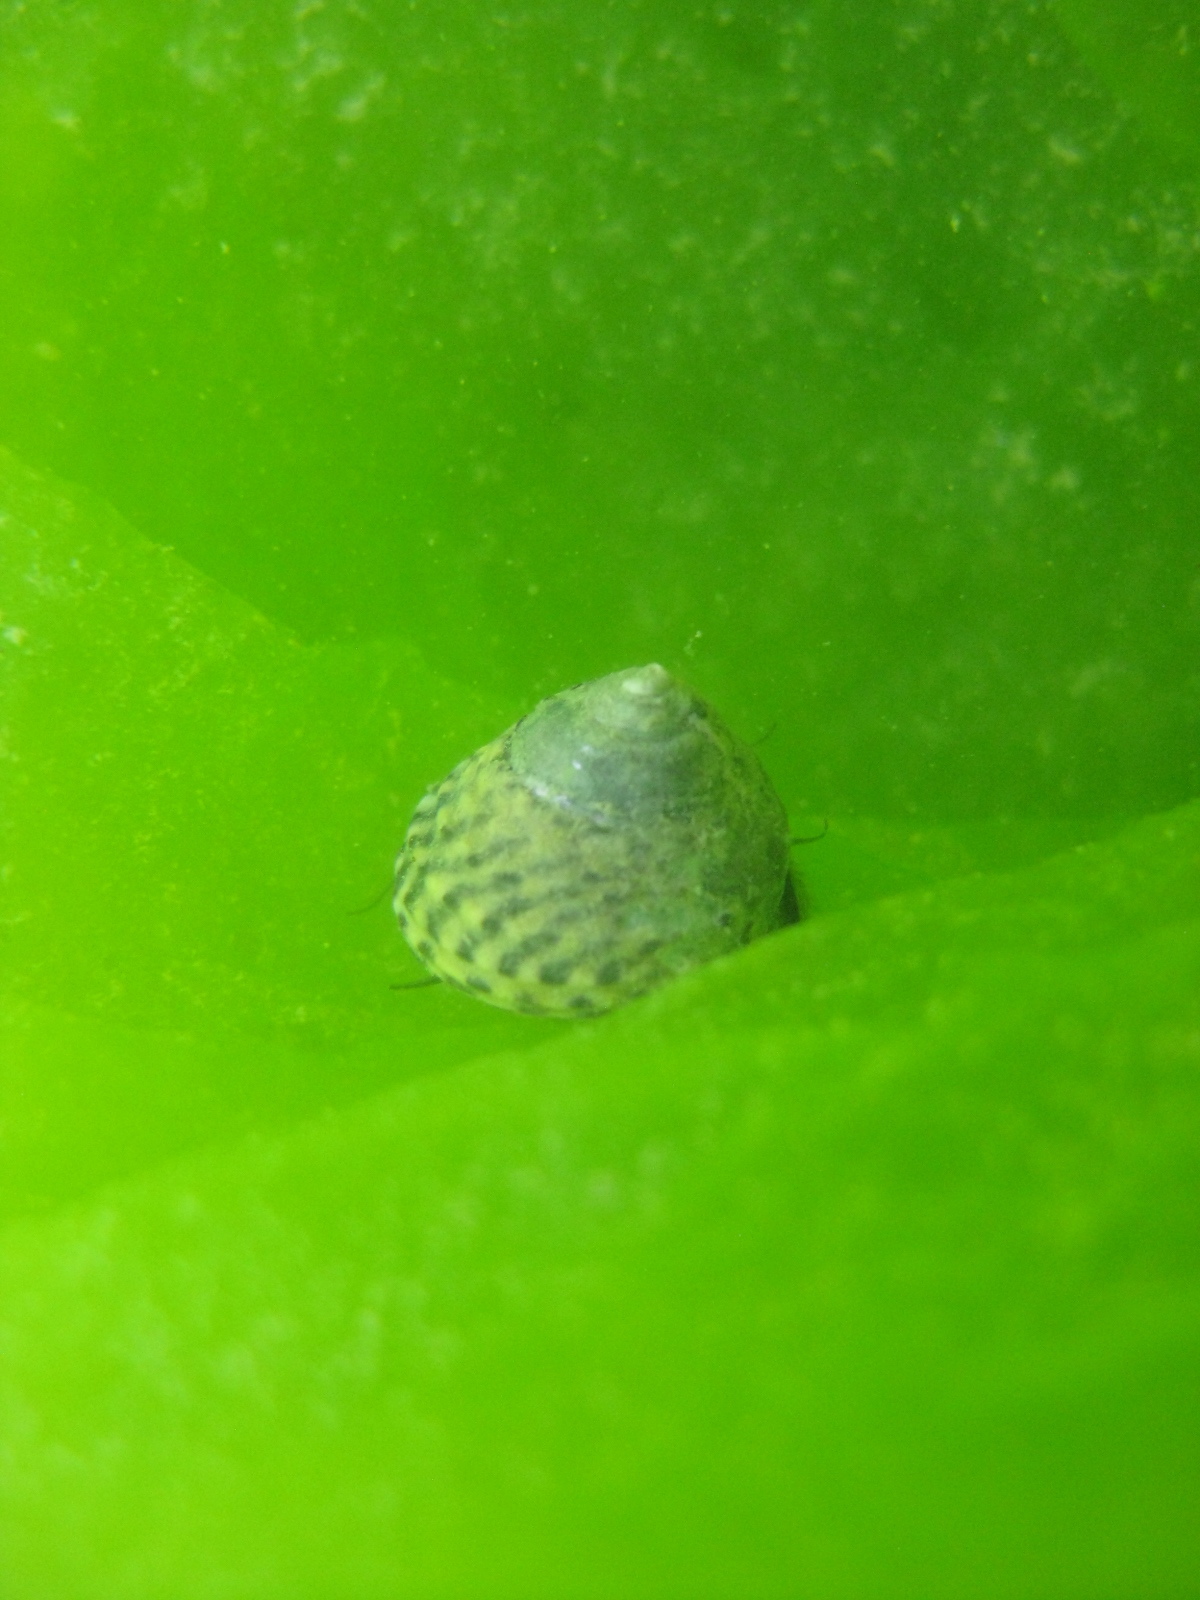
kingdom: Animalia
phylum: Mollusca
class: Gastropoda
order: Trochida
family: Trochidae
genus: Diloma
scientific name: Diloma subrostratum
